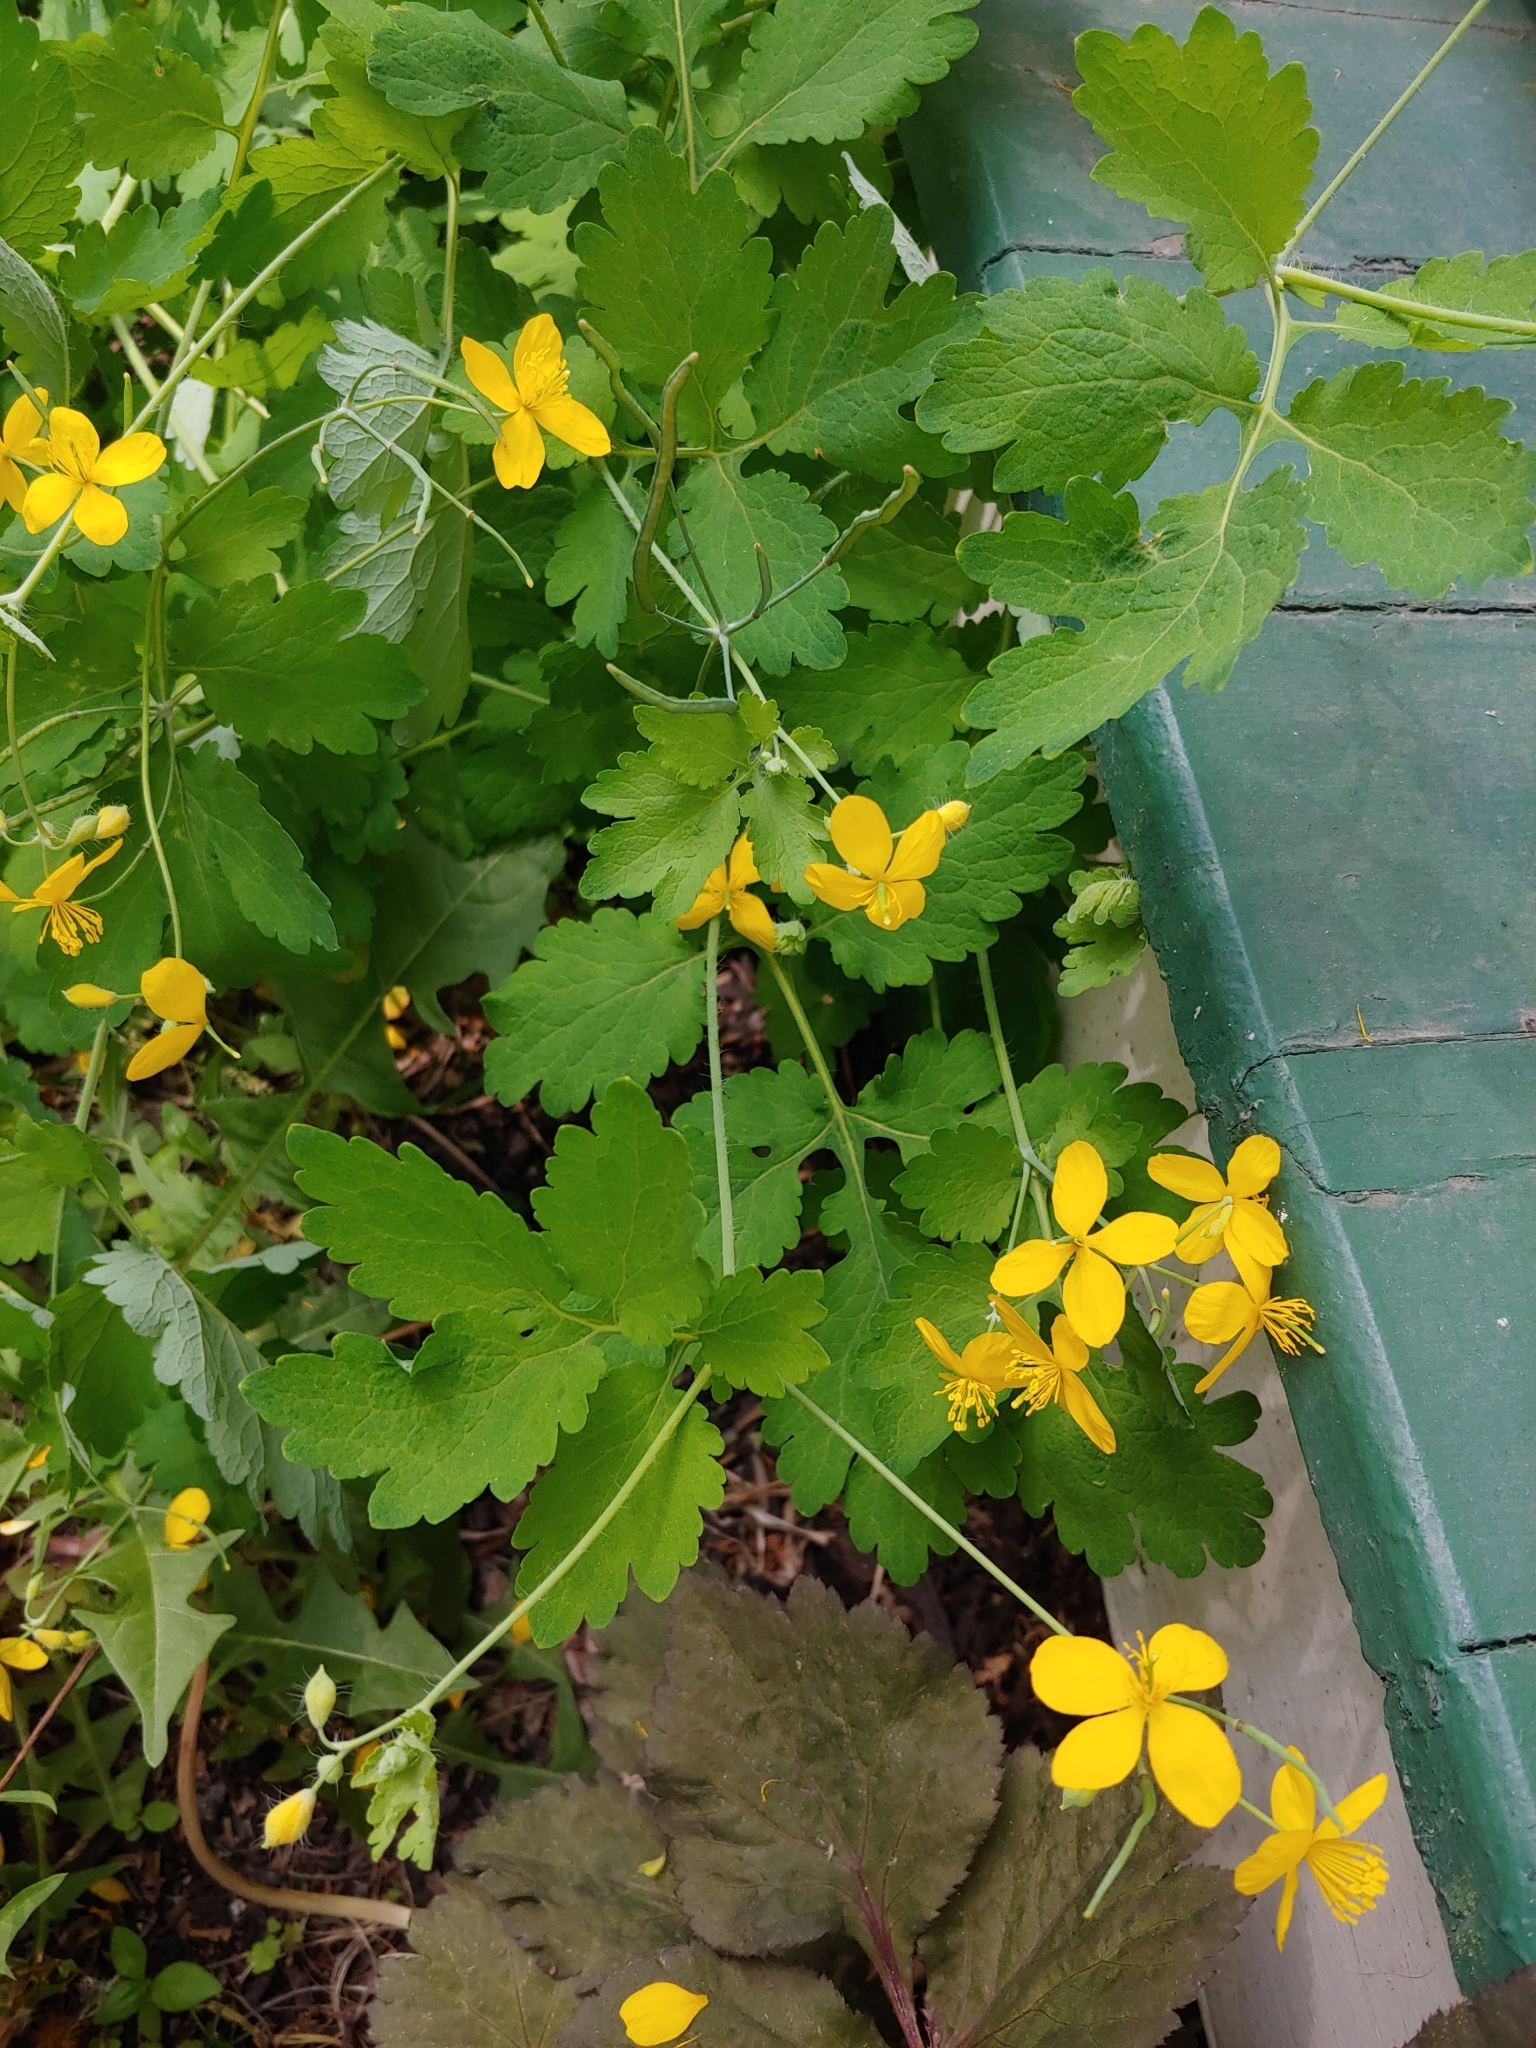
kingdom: Plantae
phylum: Tracheophyta
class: Magnoliopsida
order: Ranunculales
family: Papaveraceae
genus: Chelidonium
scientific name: Chelidonium majus
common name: Greater celandine
